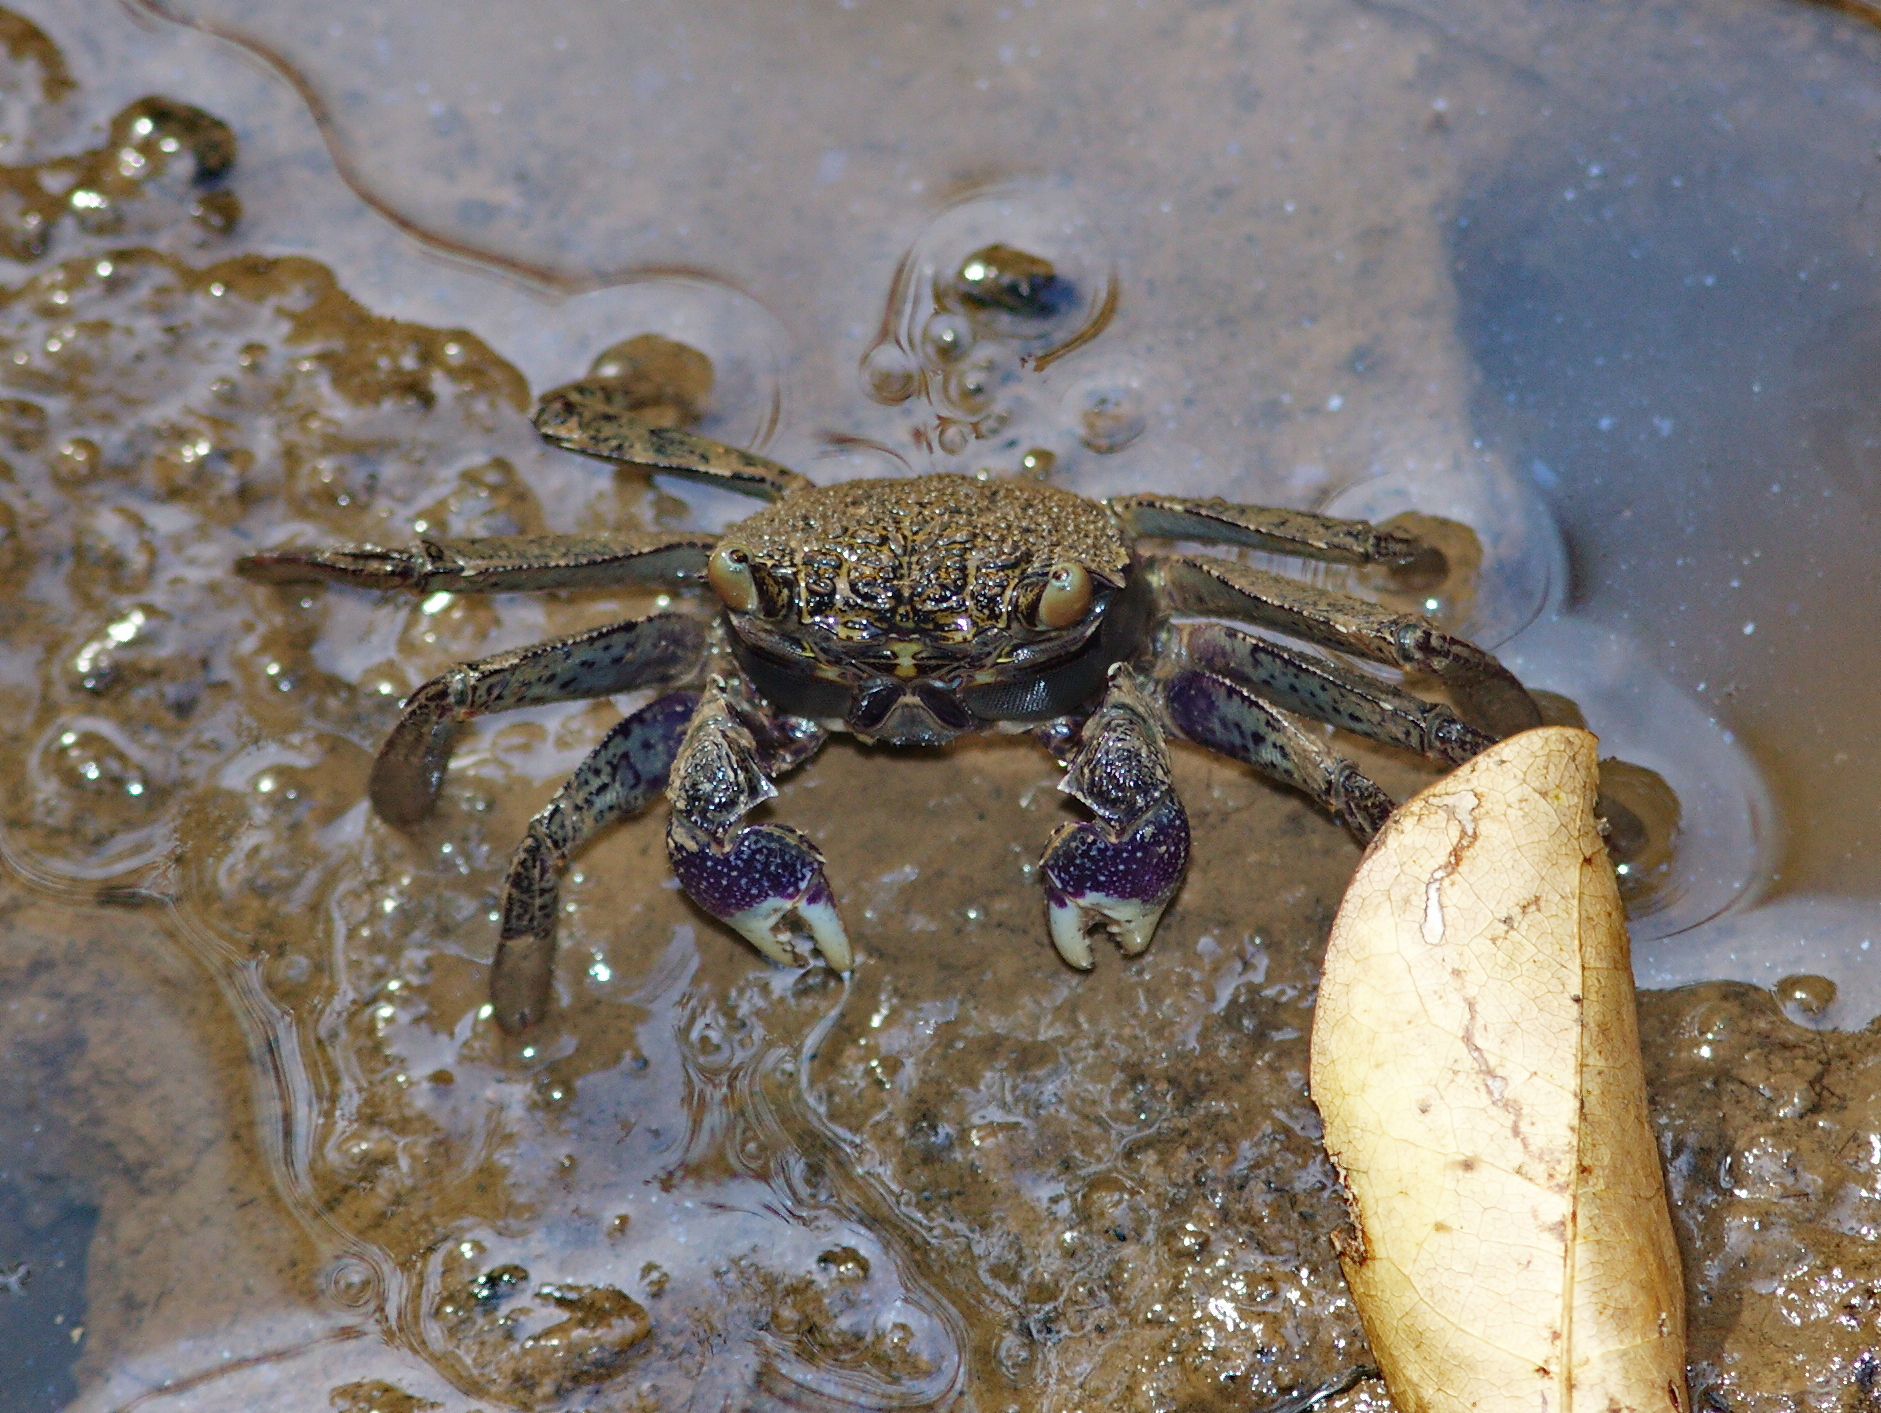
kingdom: Animalia
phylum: Arthropoda
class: Malacostraca
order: Decapoda
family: Sesarmidae
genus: Episesarma
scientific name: Episesarma versicolor
